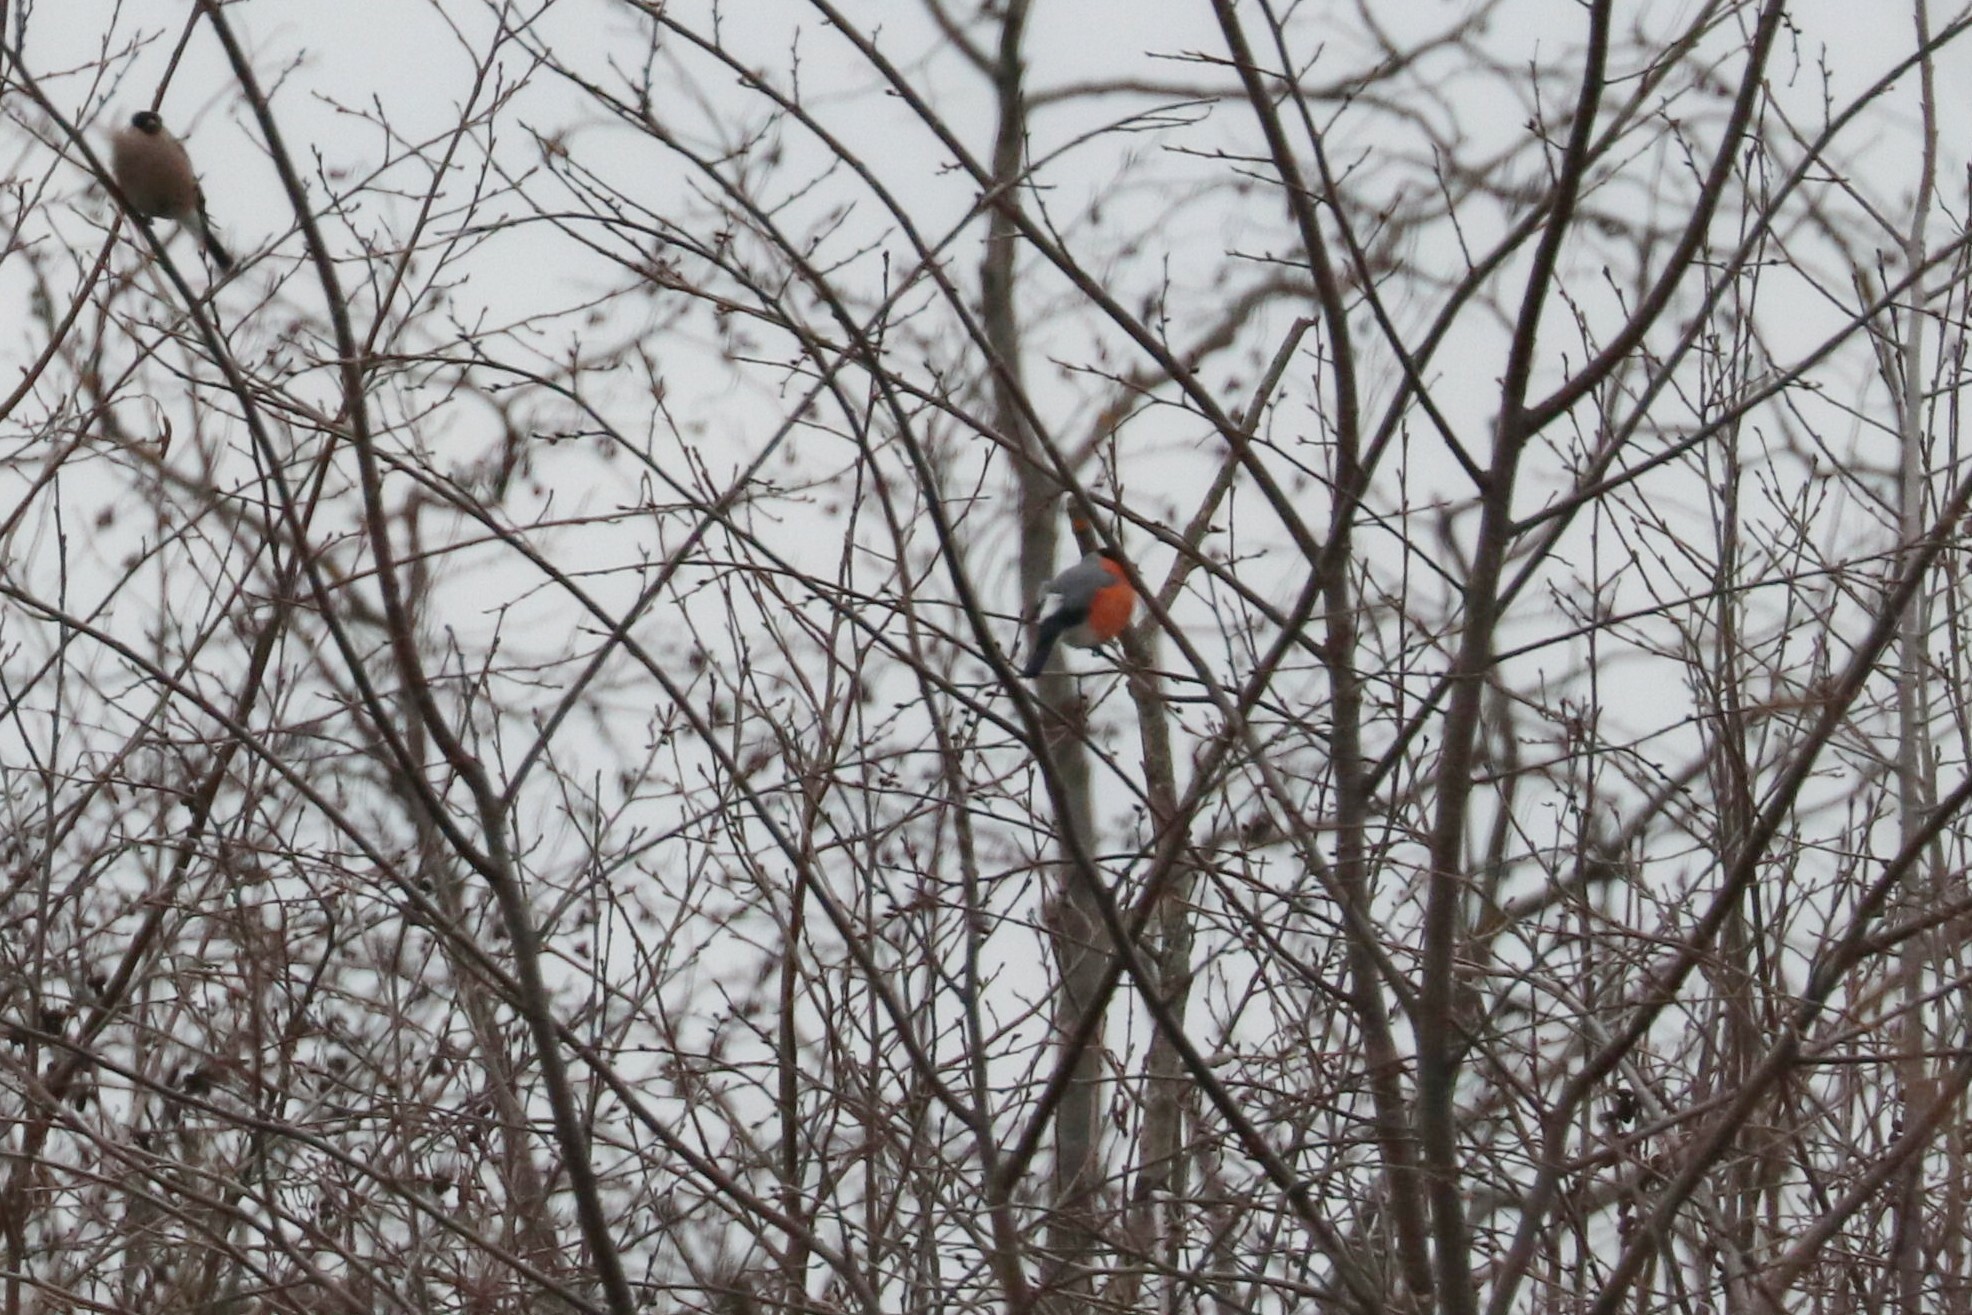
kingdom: Animalia
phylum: Chordata
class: Aves
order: Passeriformes
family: Fringillidae
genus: Pyrrhula
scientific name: Pyrrhula pyrrhula
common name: Eurasian bullfinch
